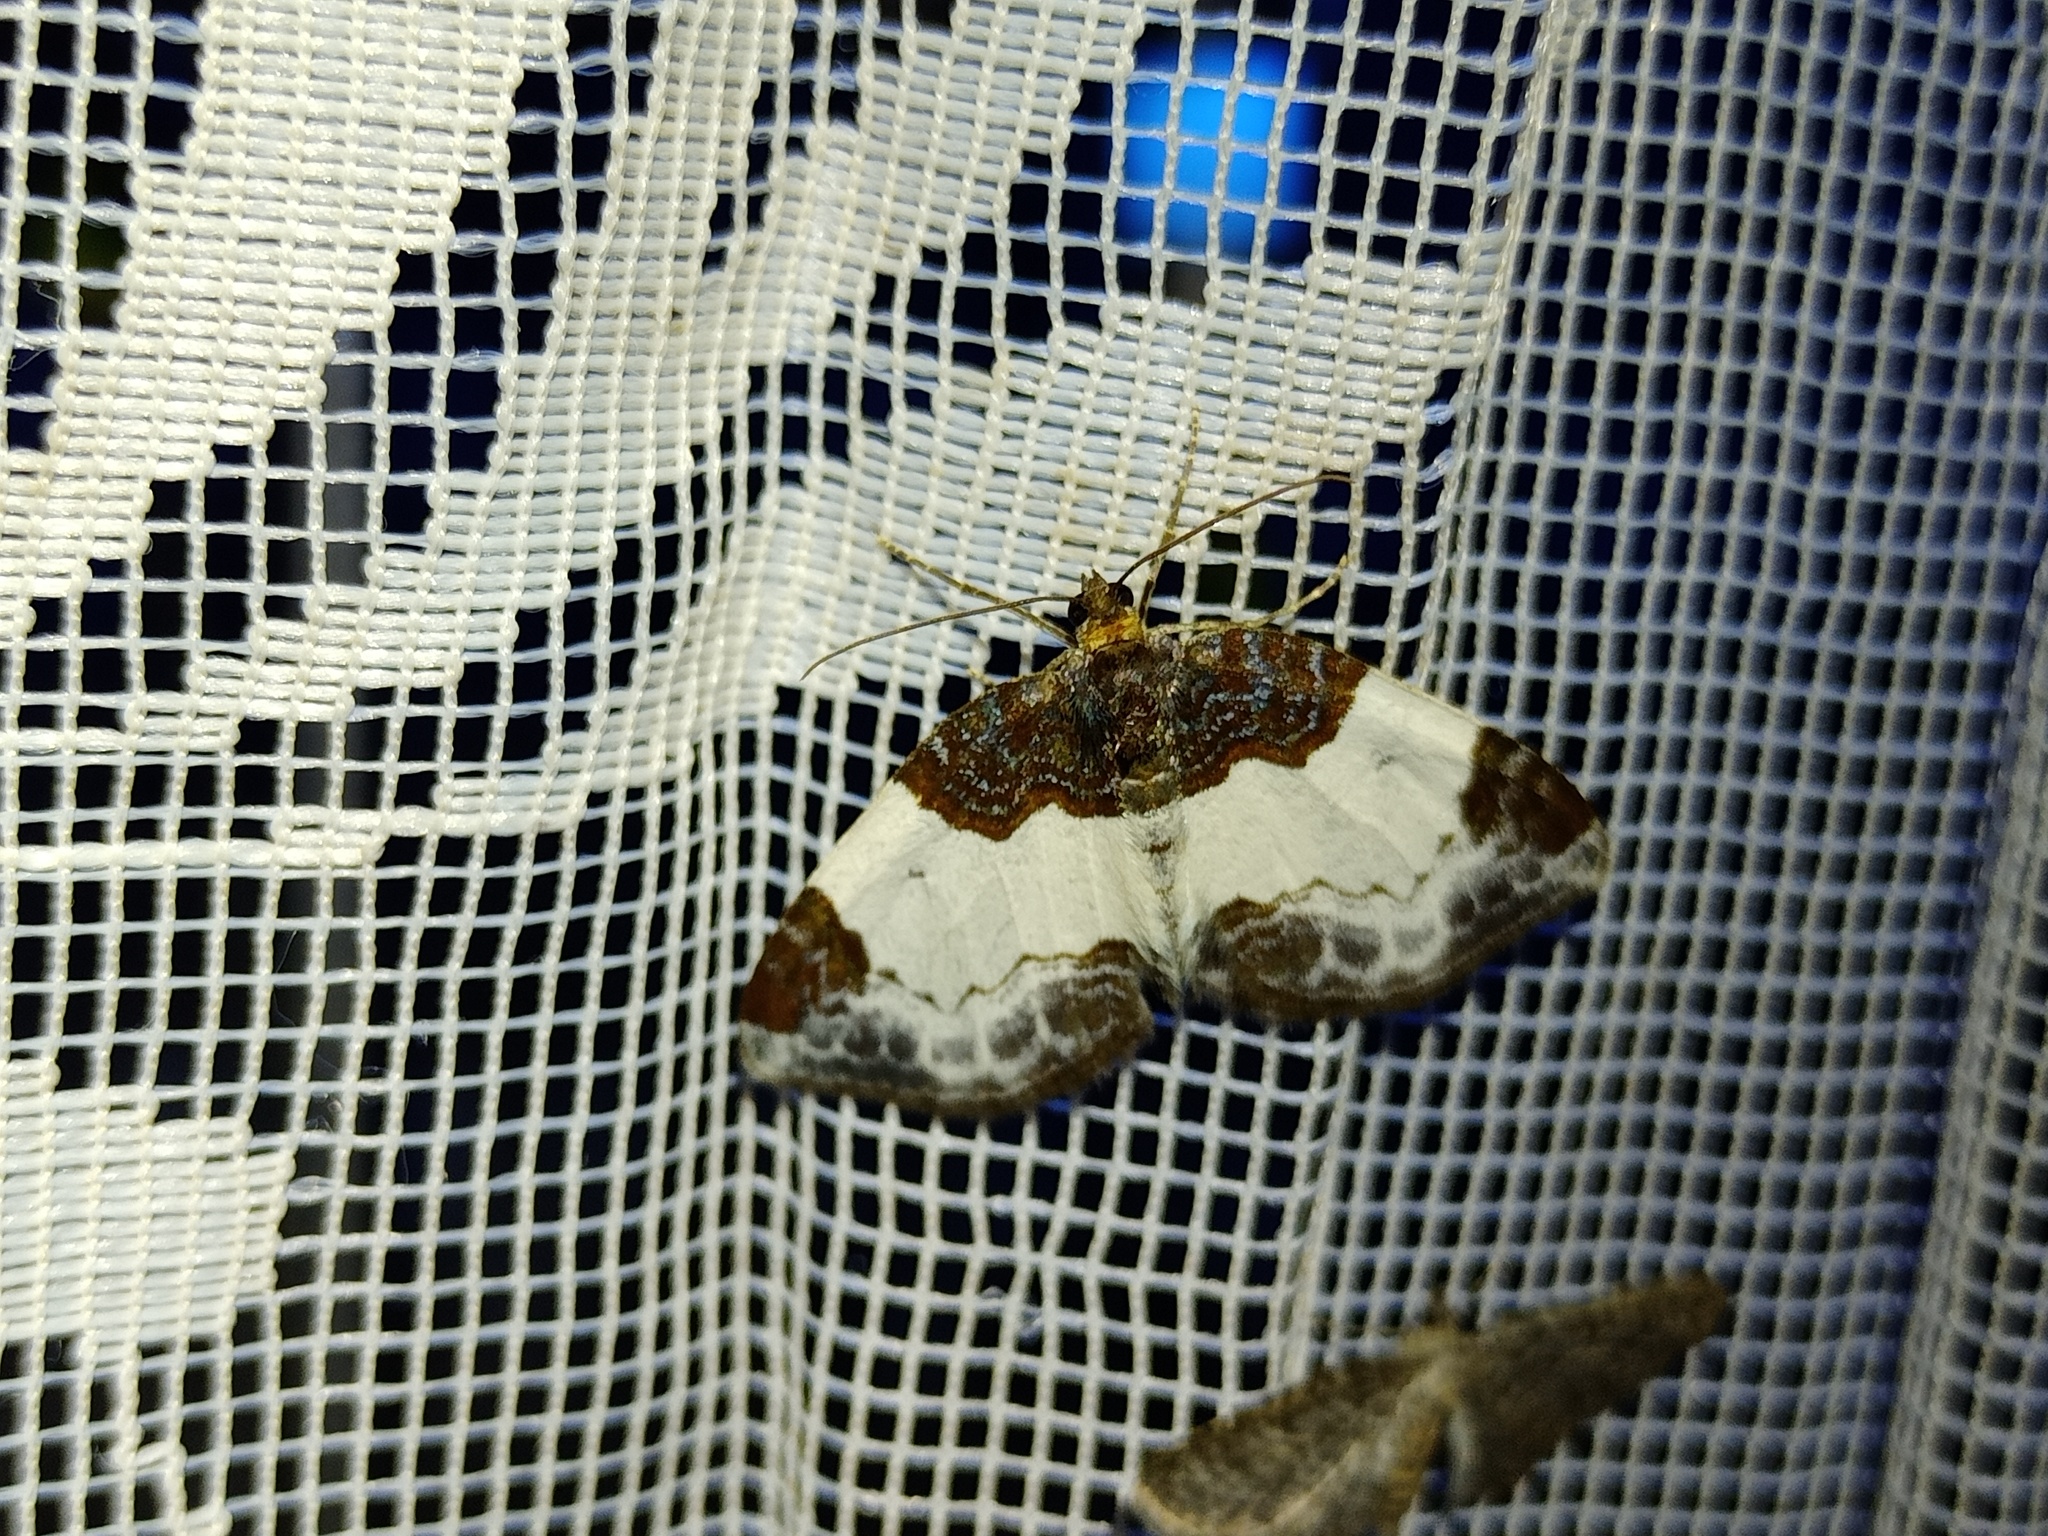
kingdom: Animalia
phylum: Arthropoda
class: Insecta
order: Lepidoptera
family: Geometridae
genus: Mesoleuca
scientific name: Mesoleuca albicillata
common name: Beautiful carpet
